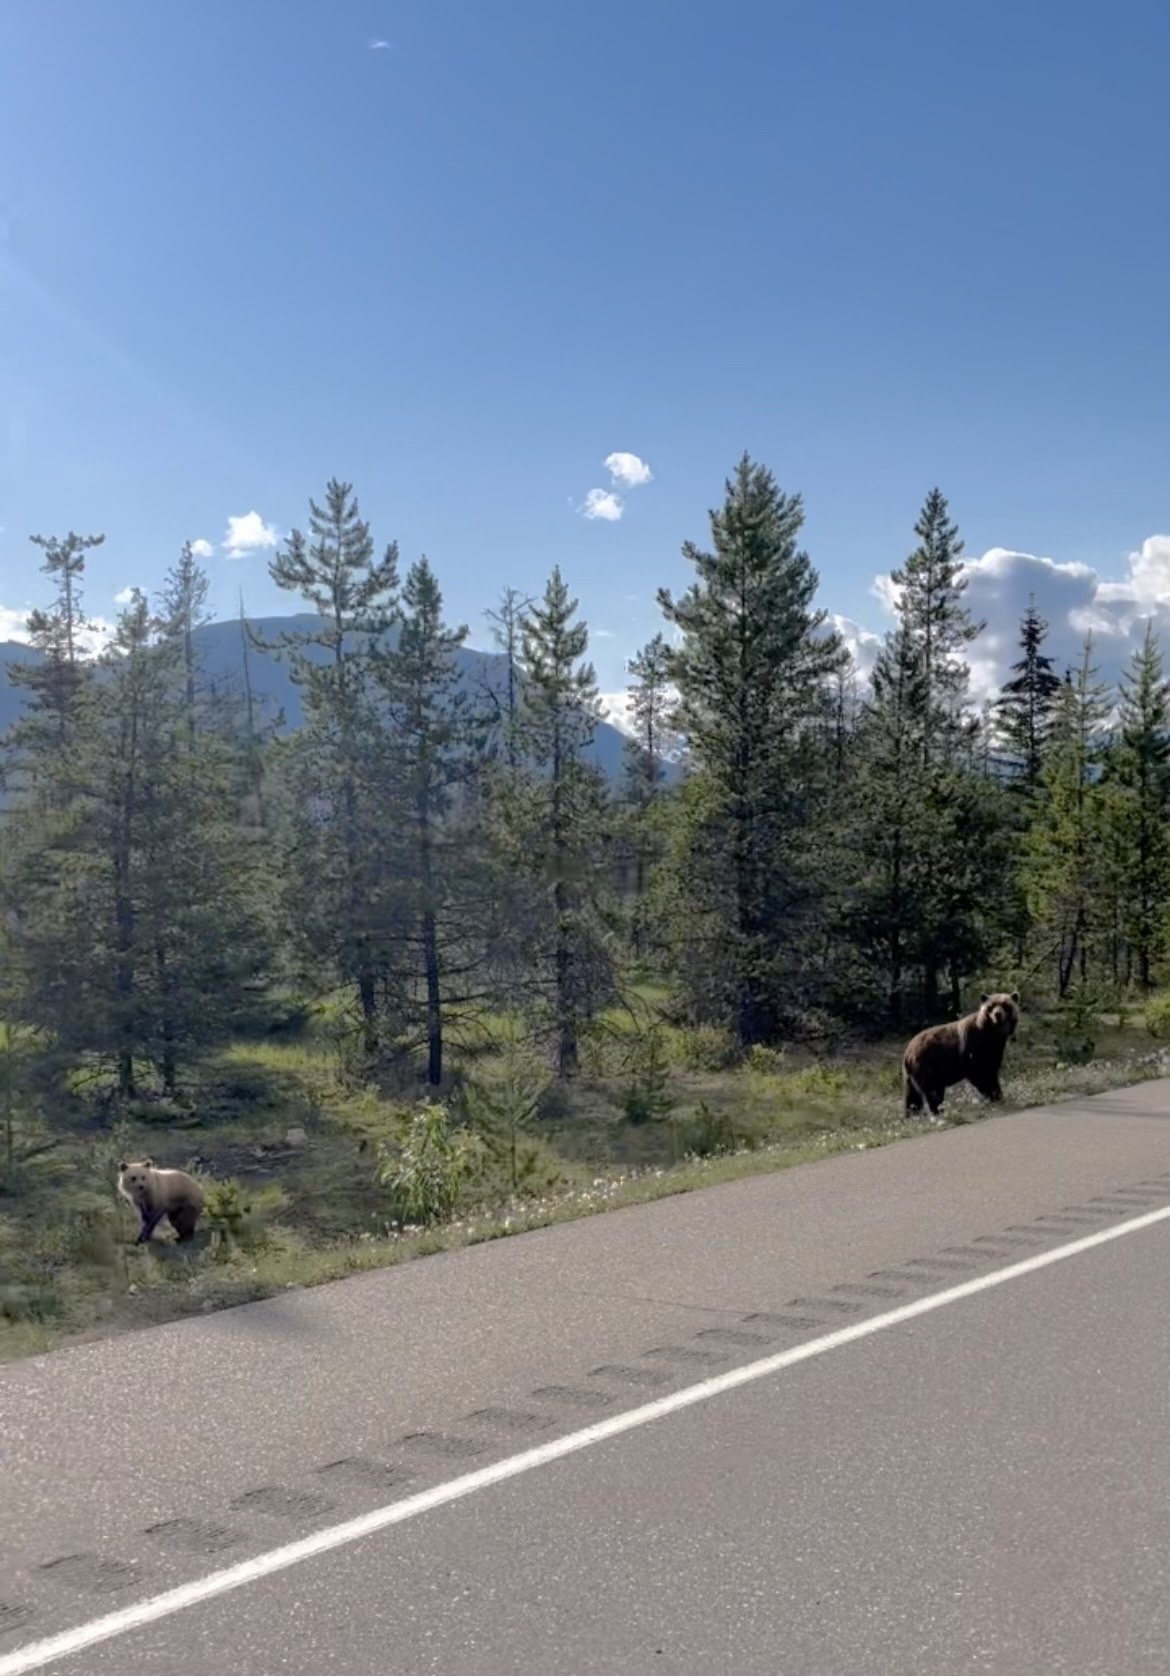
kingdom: Animalia
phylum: Chordata
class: Mammalia
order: Carnivora
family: Ursidae
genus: Ursus
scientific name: Ursus arctos
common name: Brown bear
